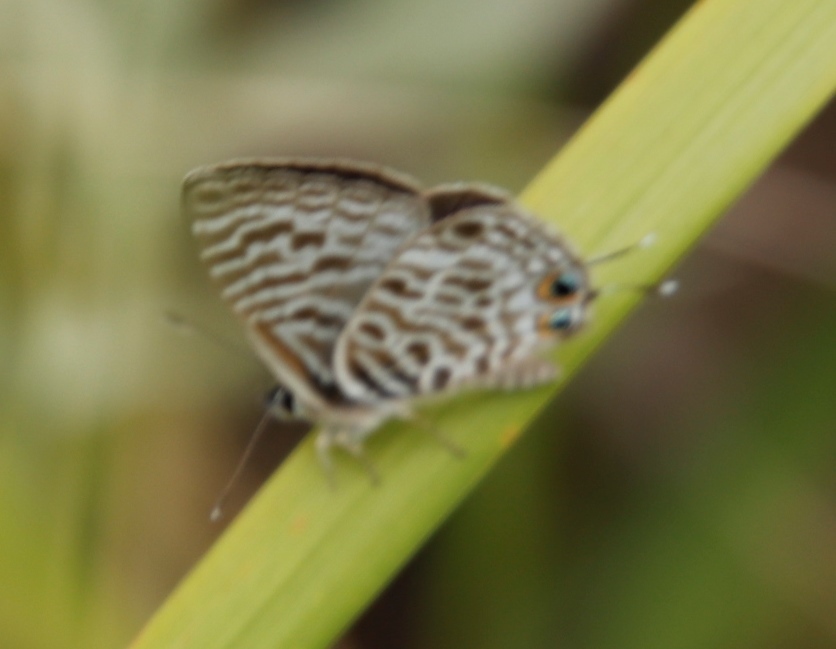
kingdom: Animalia
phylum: Arthropoda
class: Insecta
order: Lepidoptera
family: Lycaenidae
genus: Leptotes
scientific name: Leptotes
